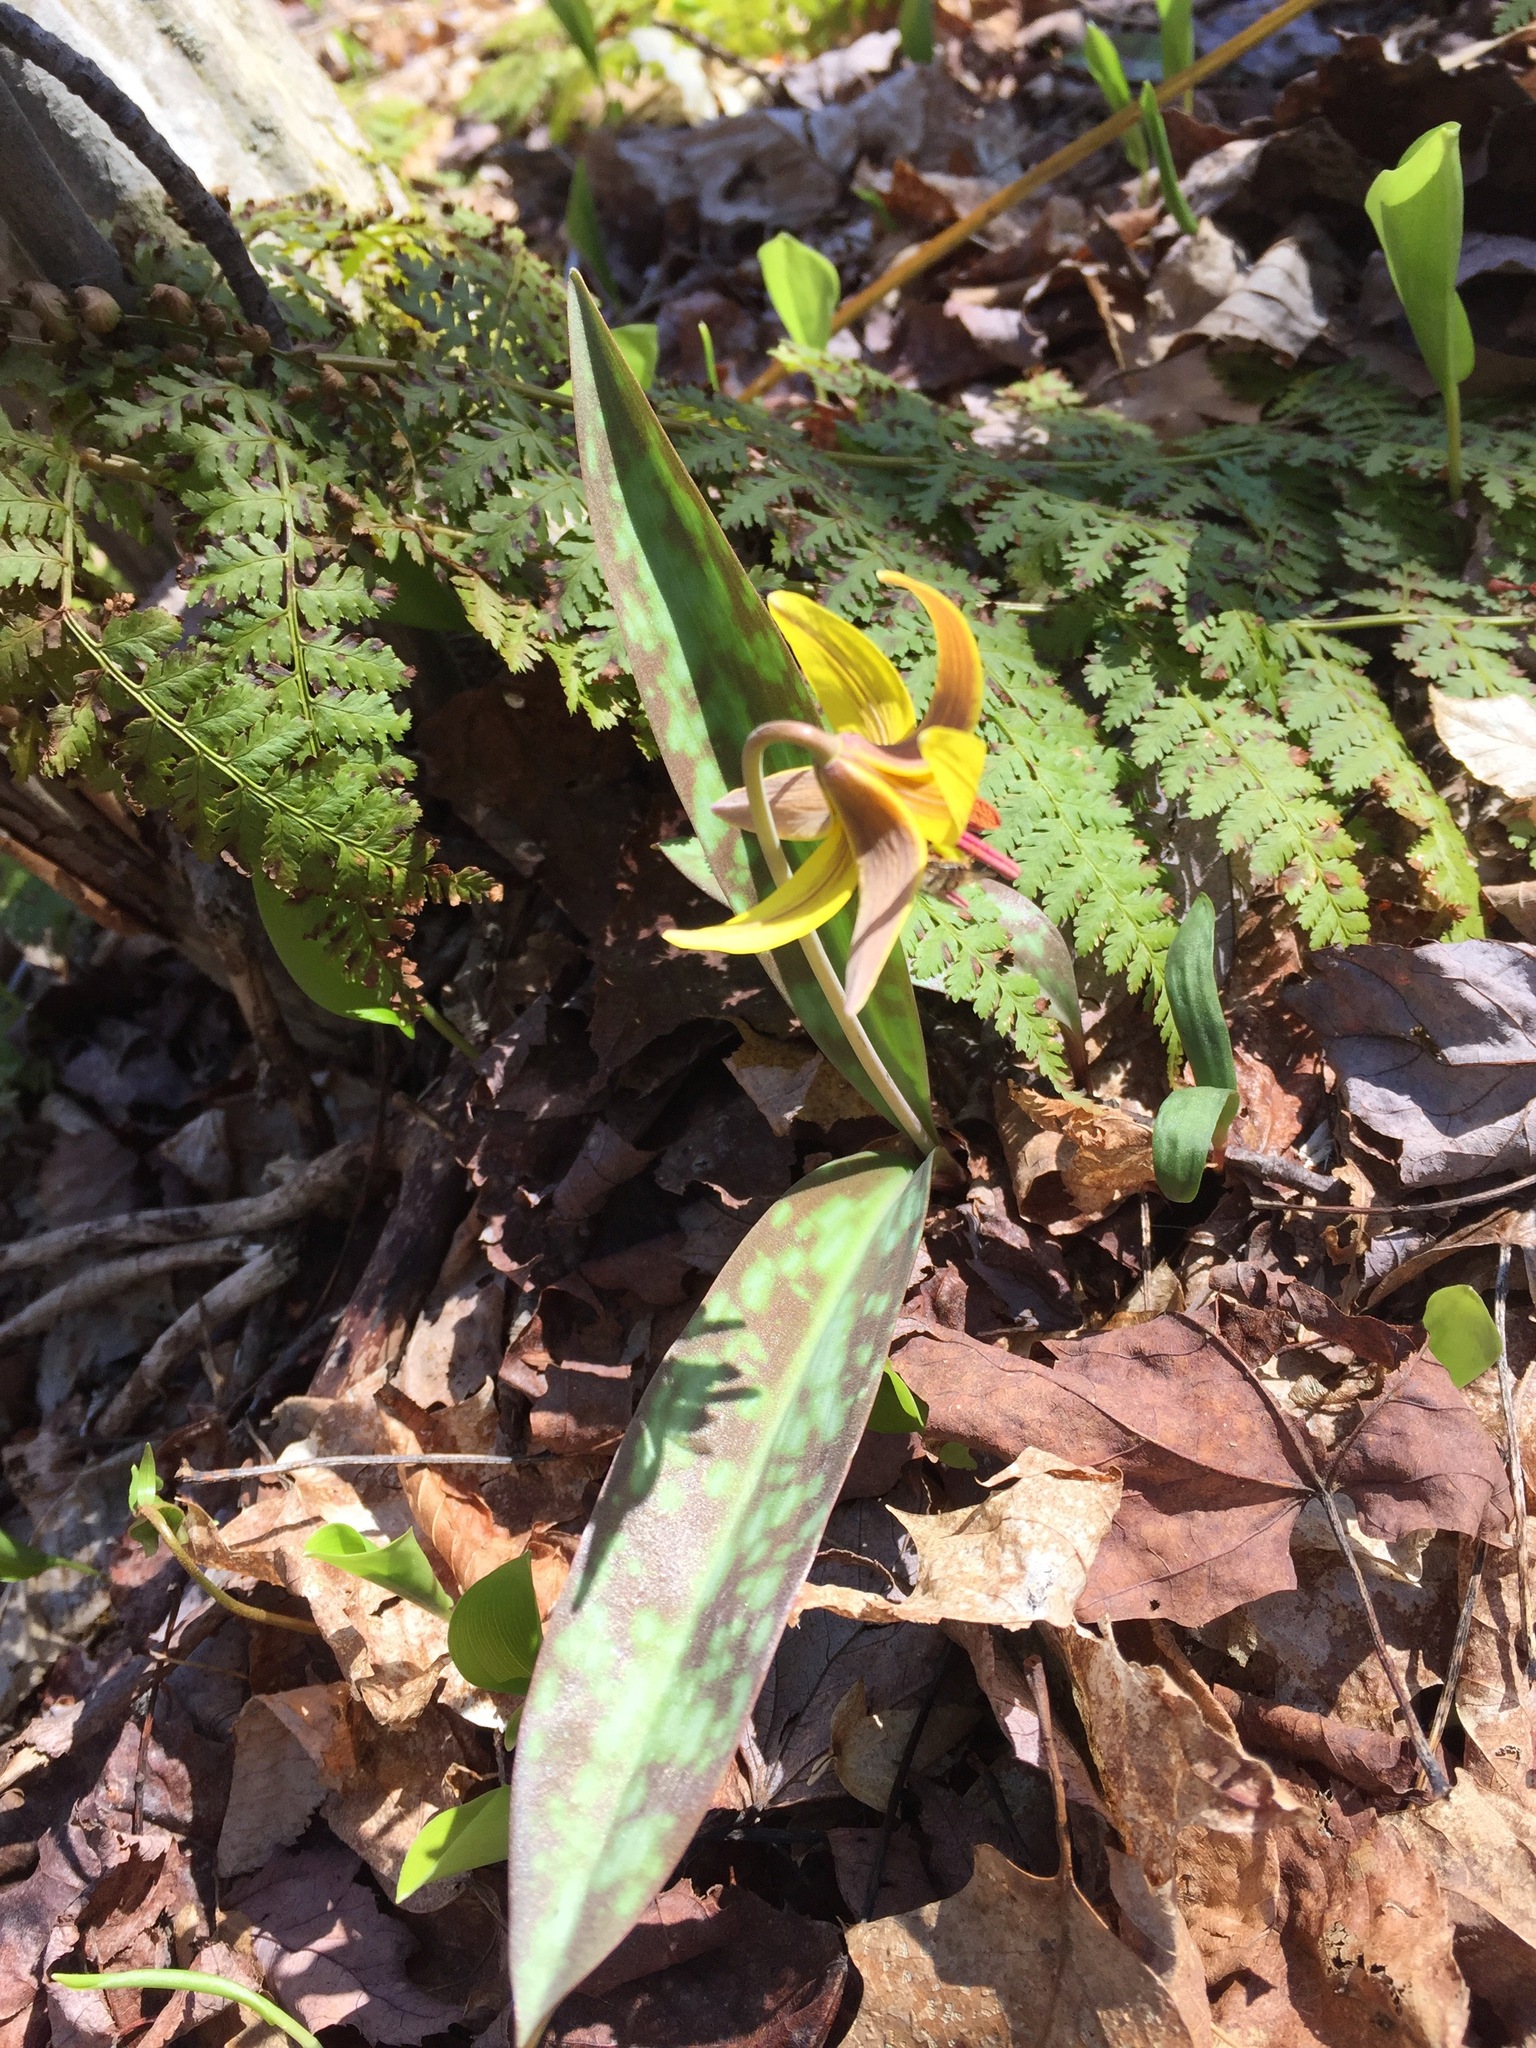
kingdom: Plantae
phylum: Tracheophyta
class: Liliopsida
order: Liliales
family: Liliaceae
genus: Erythronium
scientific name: Erythronium americanum
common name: Yellow adder's-tongue
